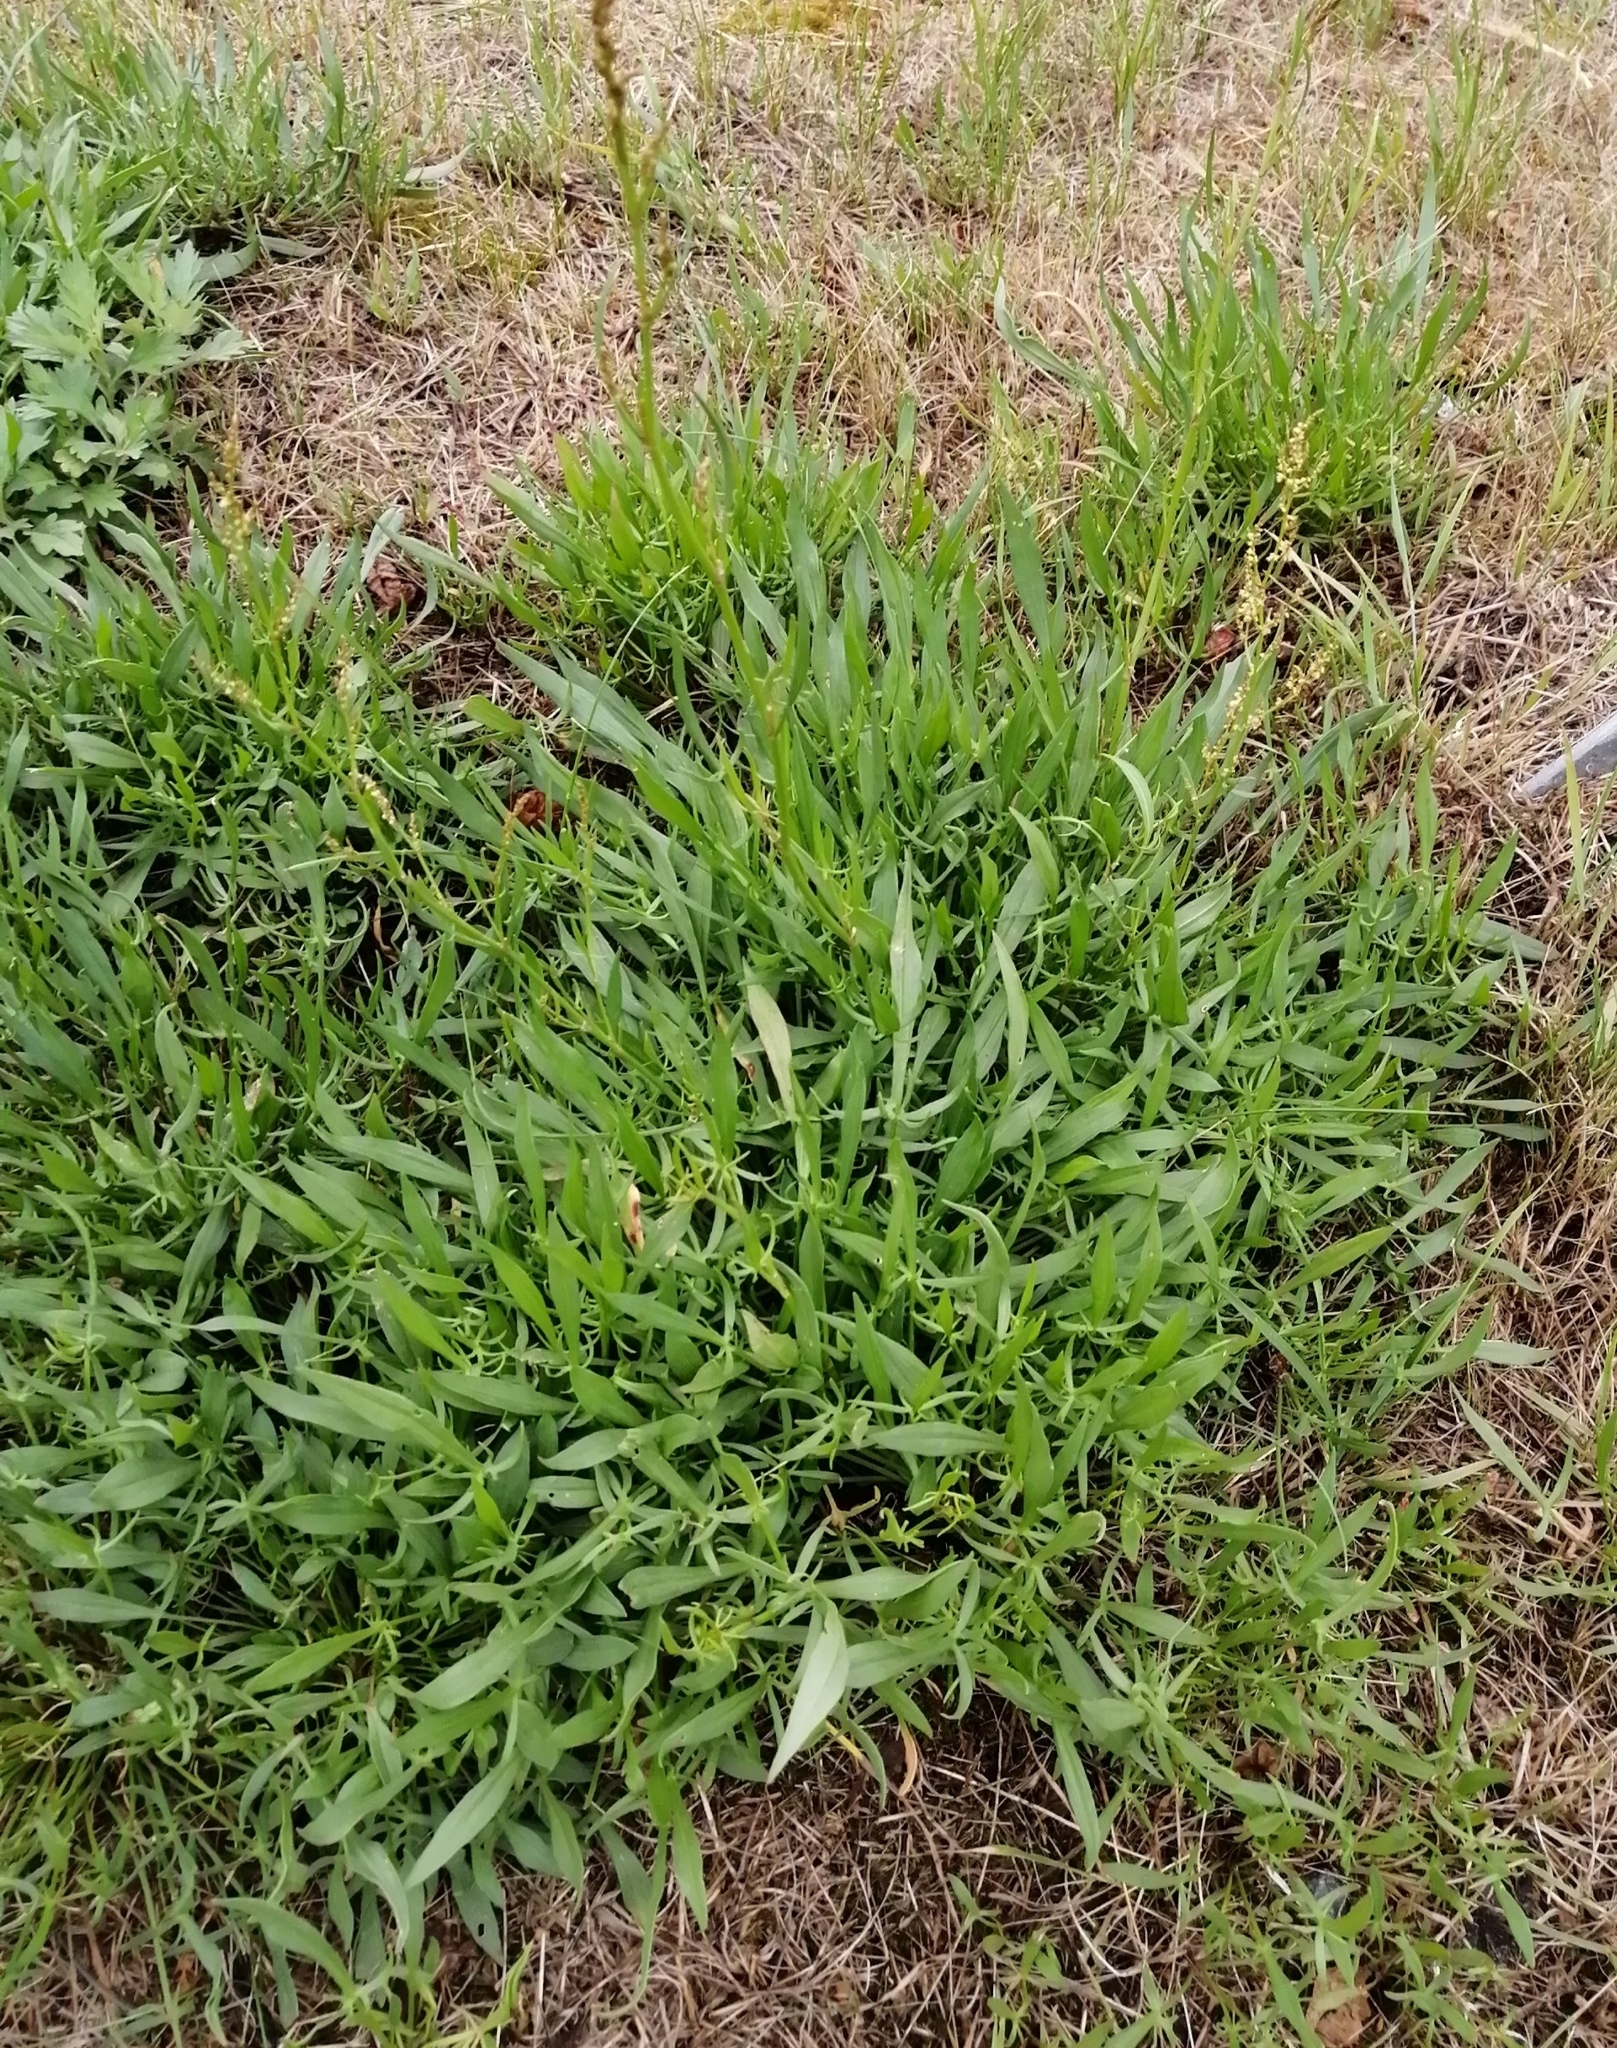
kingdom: Plantae
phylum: Tracheophyta
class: Magnoliopsida
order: Caryophyllales
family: Polygonaceae
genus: Rumex
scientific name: Rumex acetosella
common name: Common sheep sorrel
